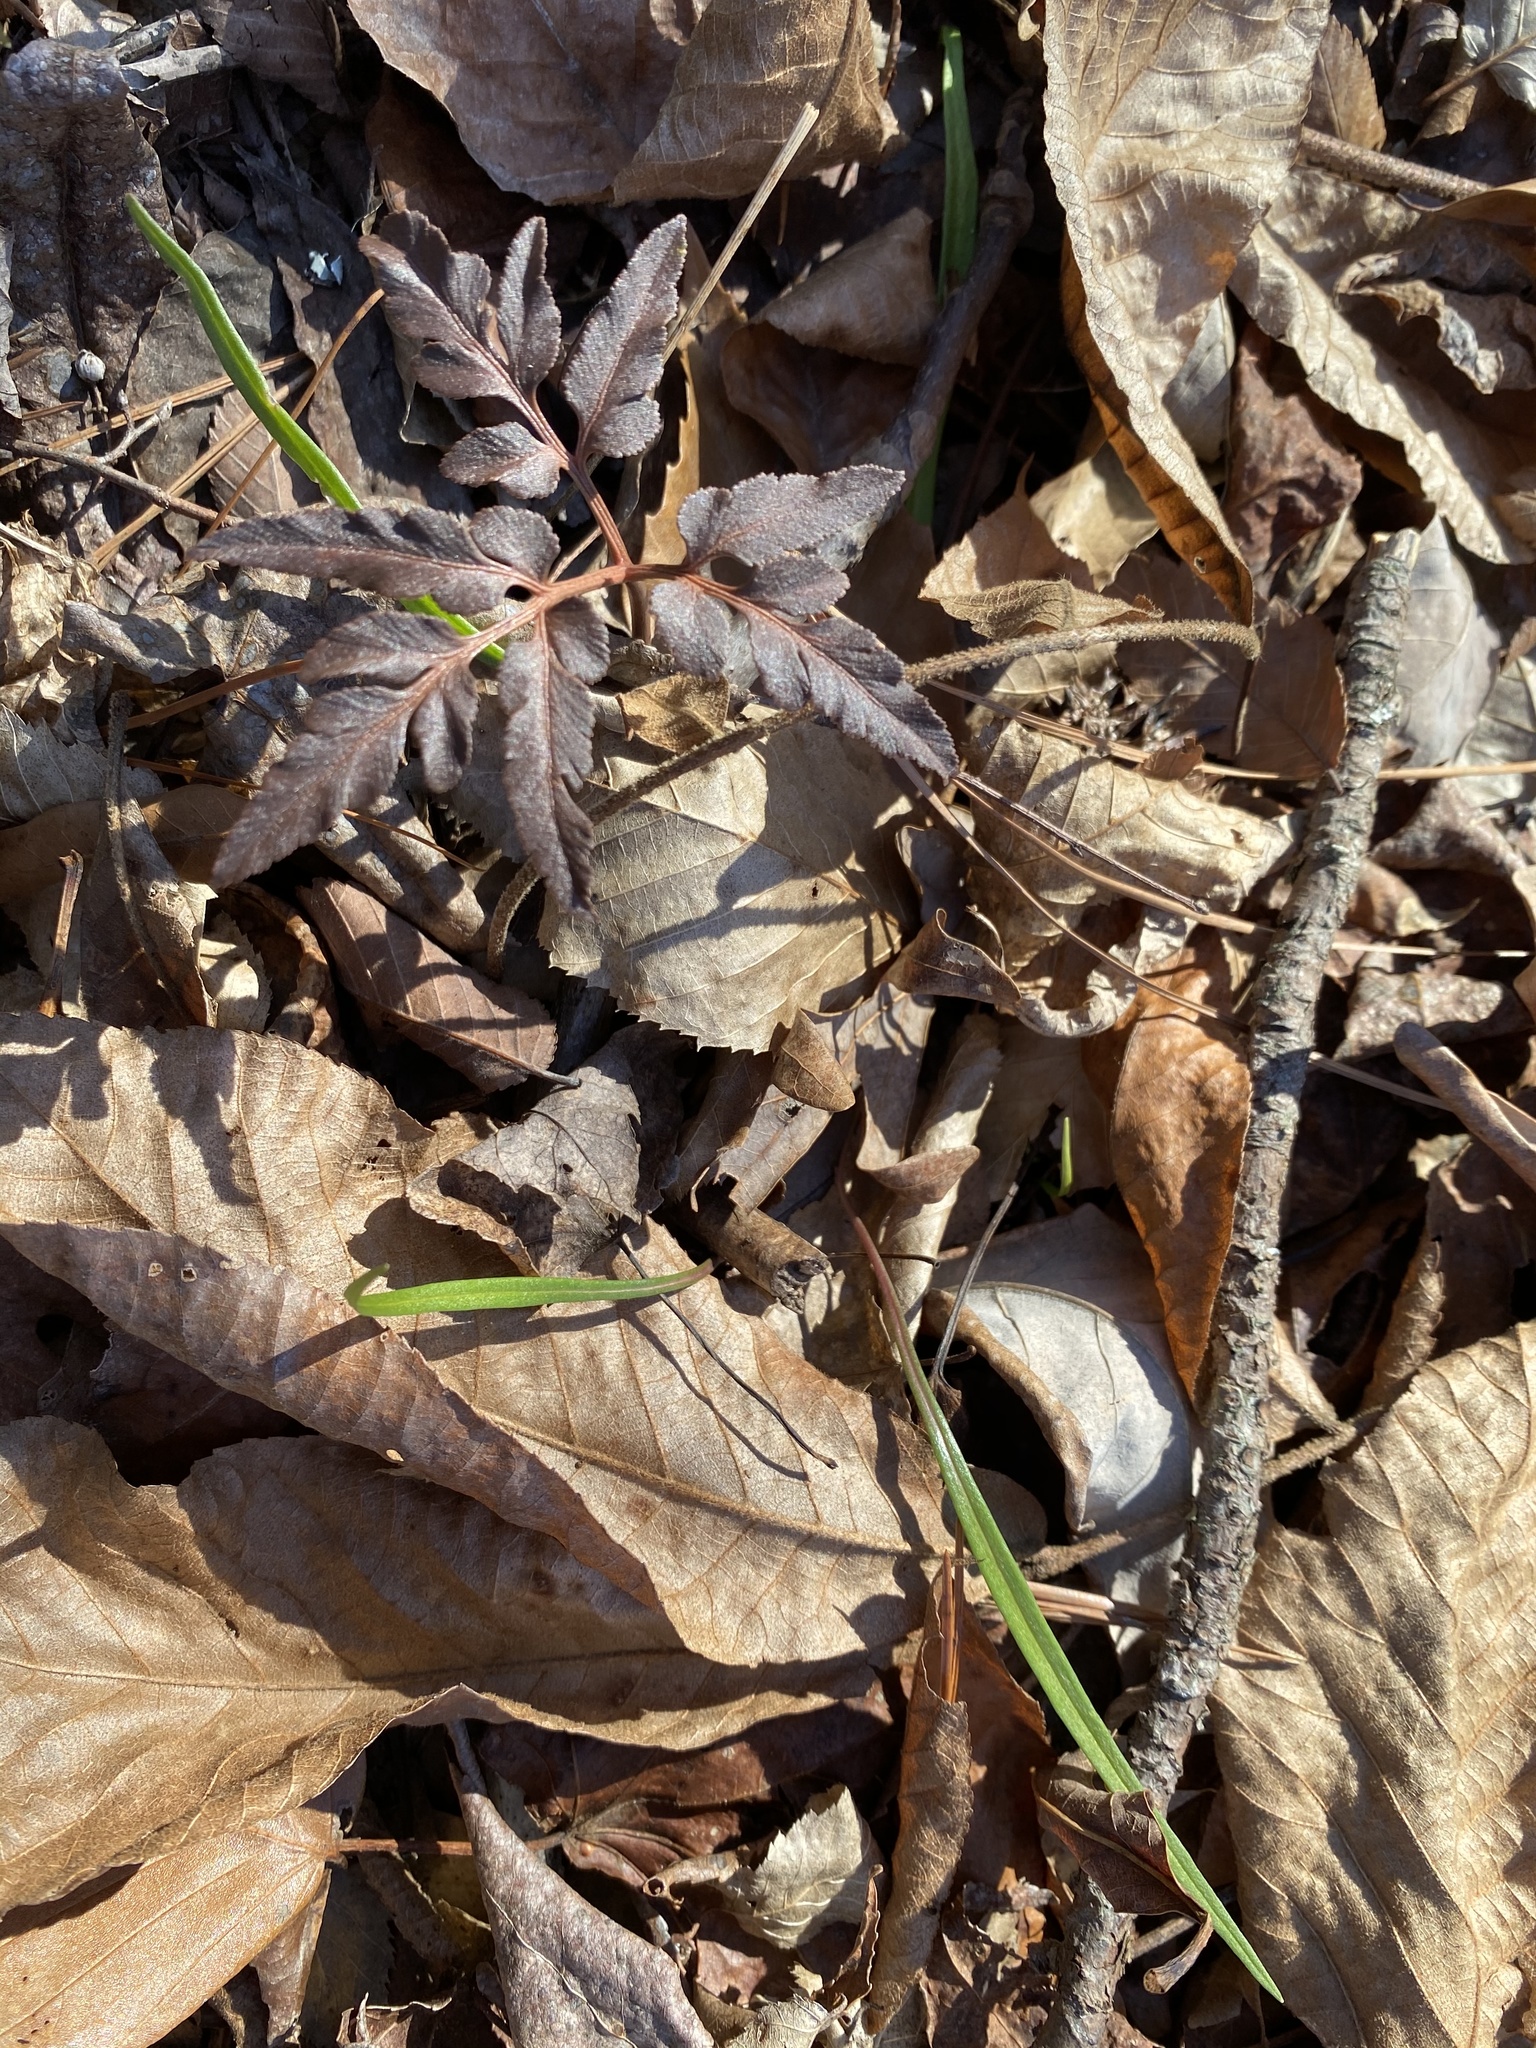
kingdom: Plantae
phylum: Tracheophyta
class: Magnoliopsida
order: Caryophyllales
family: Montiaceae
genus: Claytonia
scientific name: Claytonia virginica
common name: Virginia springbeauty
